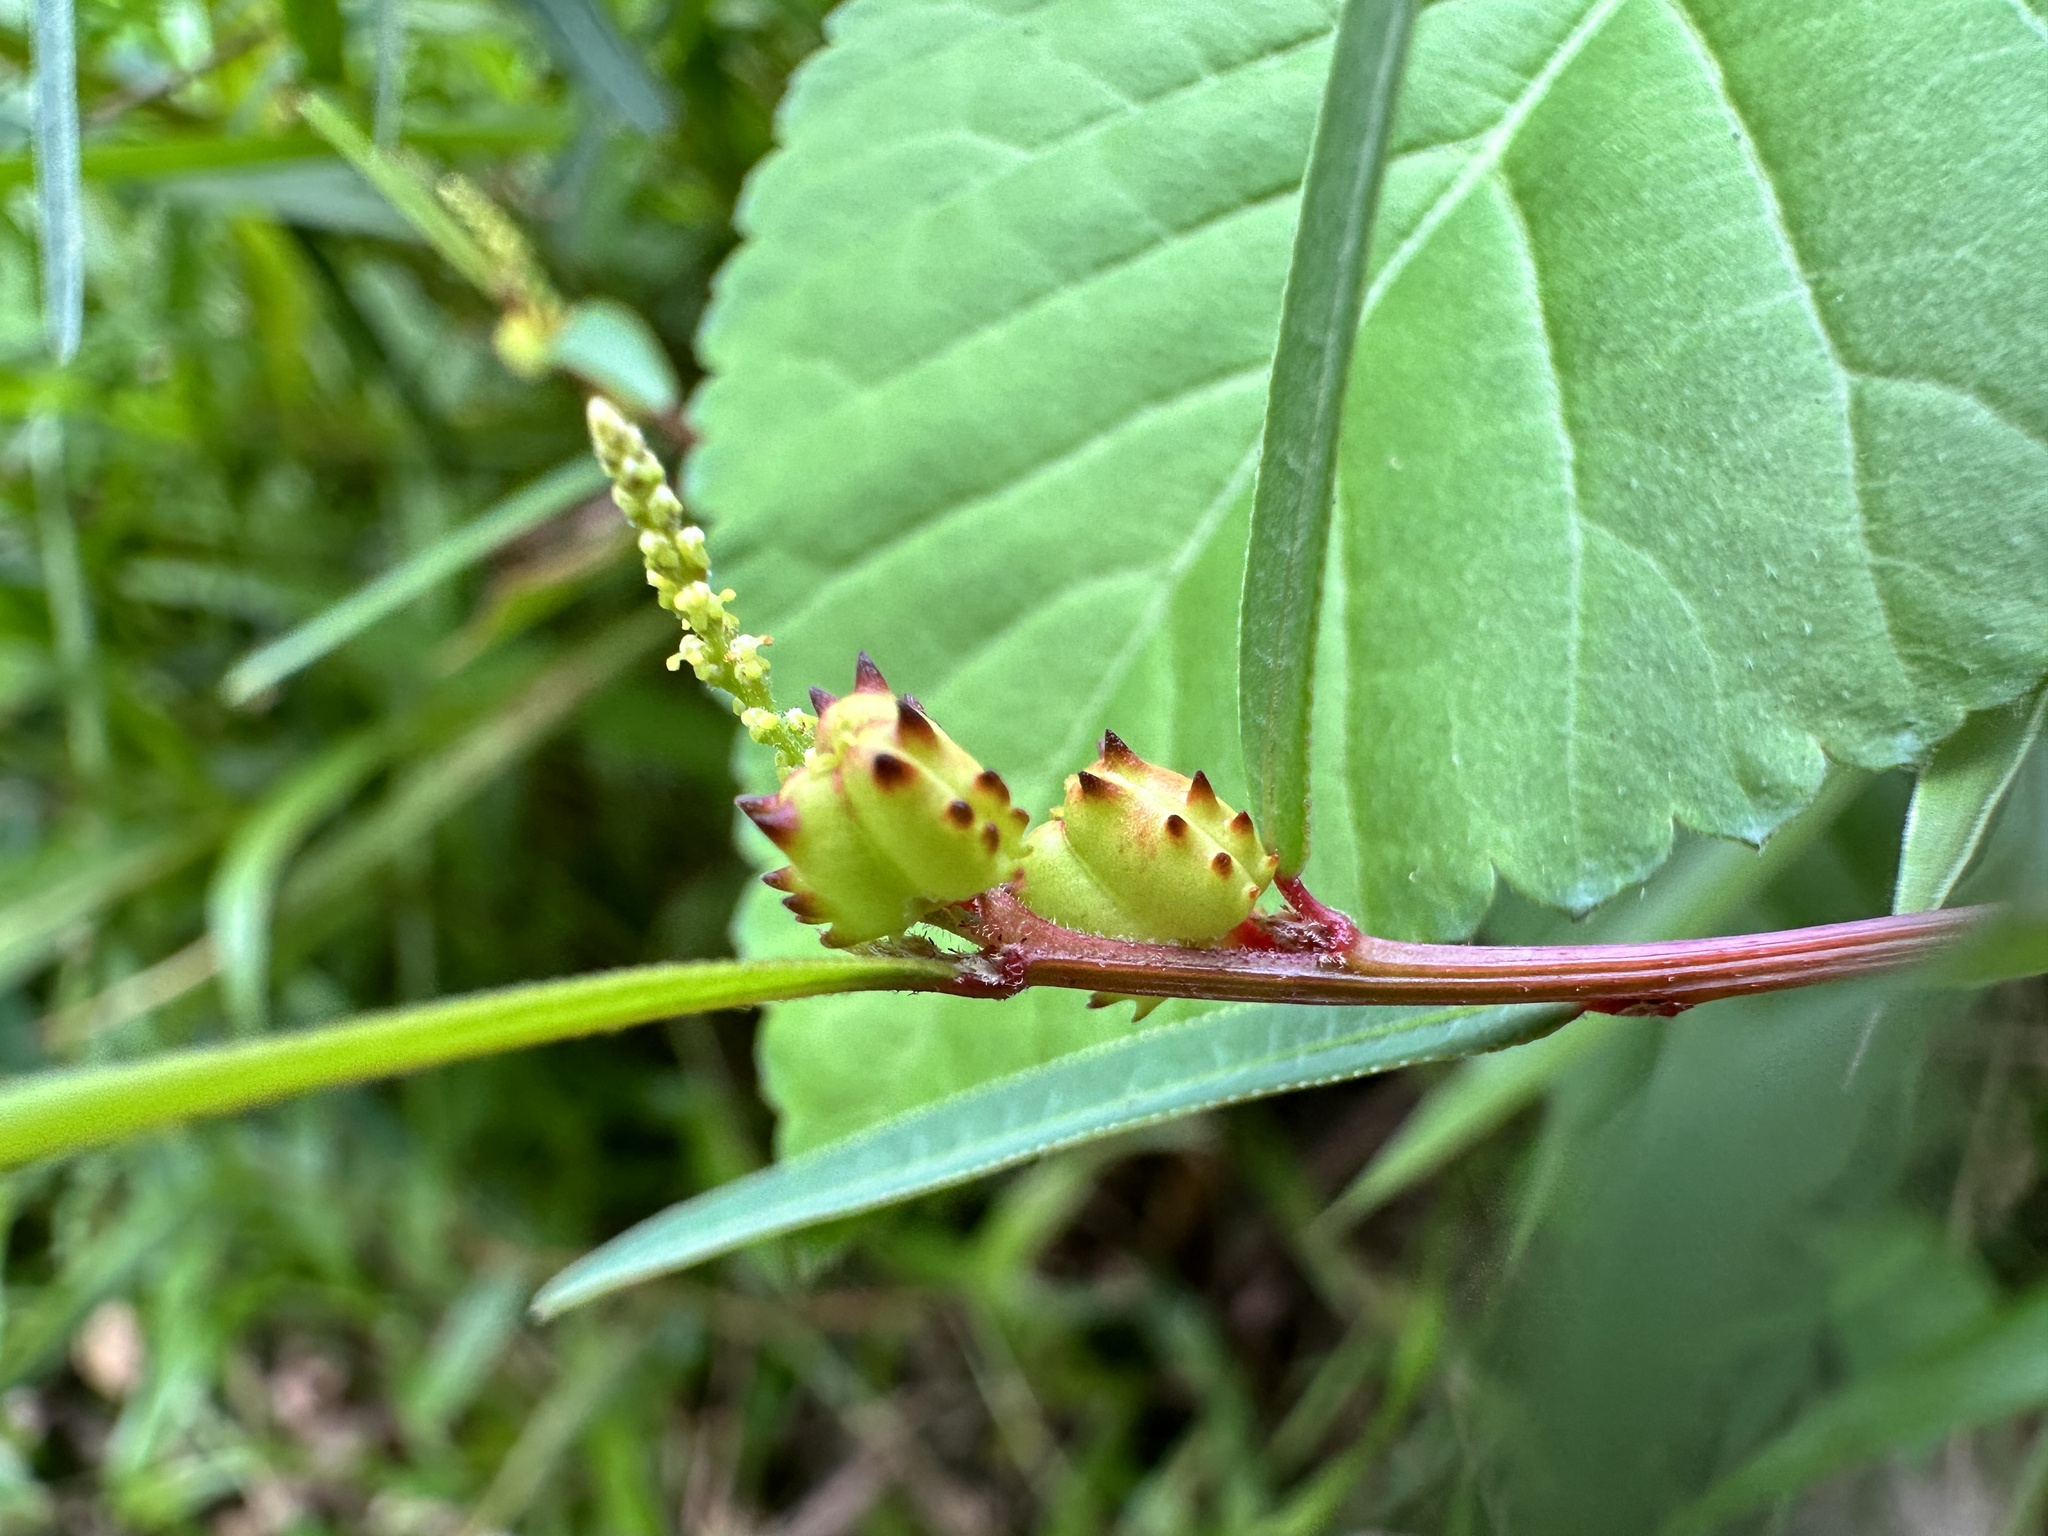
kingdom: Plantae
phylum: Tracheophyta
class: Magnoliopsida
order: Malpighiales
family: Euphorbiaceae
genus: Microstachys
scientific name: Microstachys chamaelea
